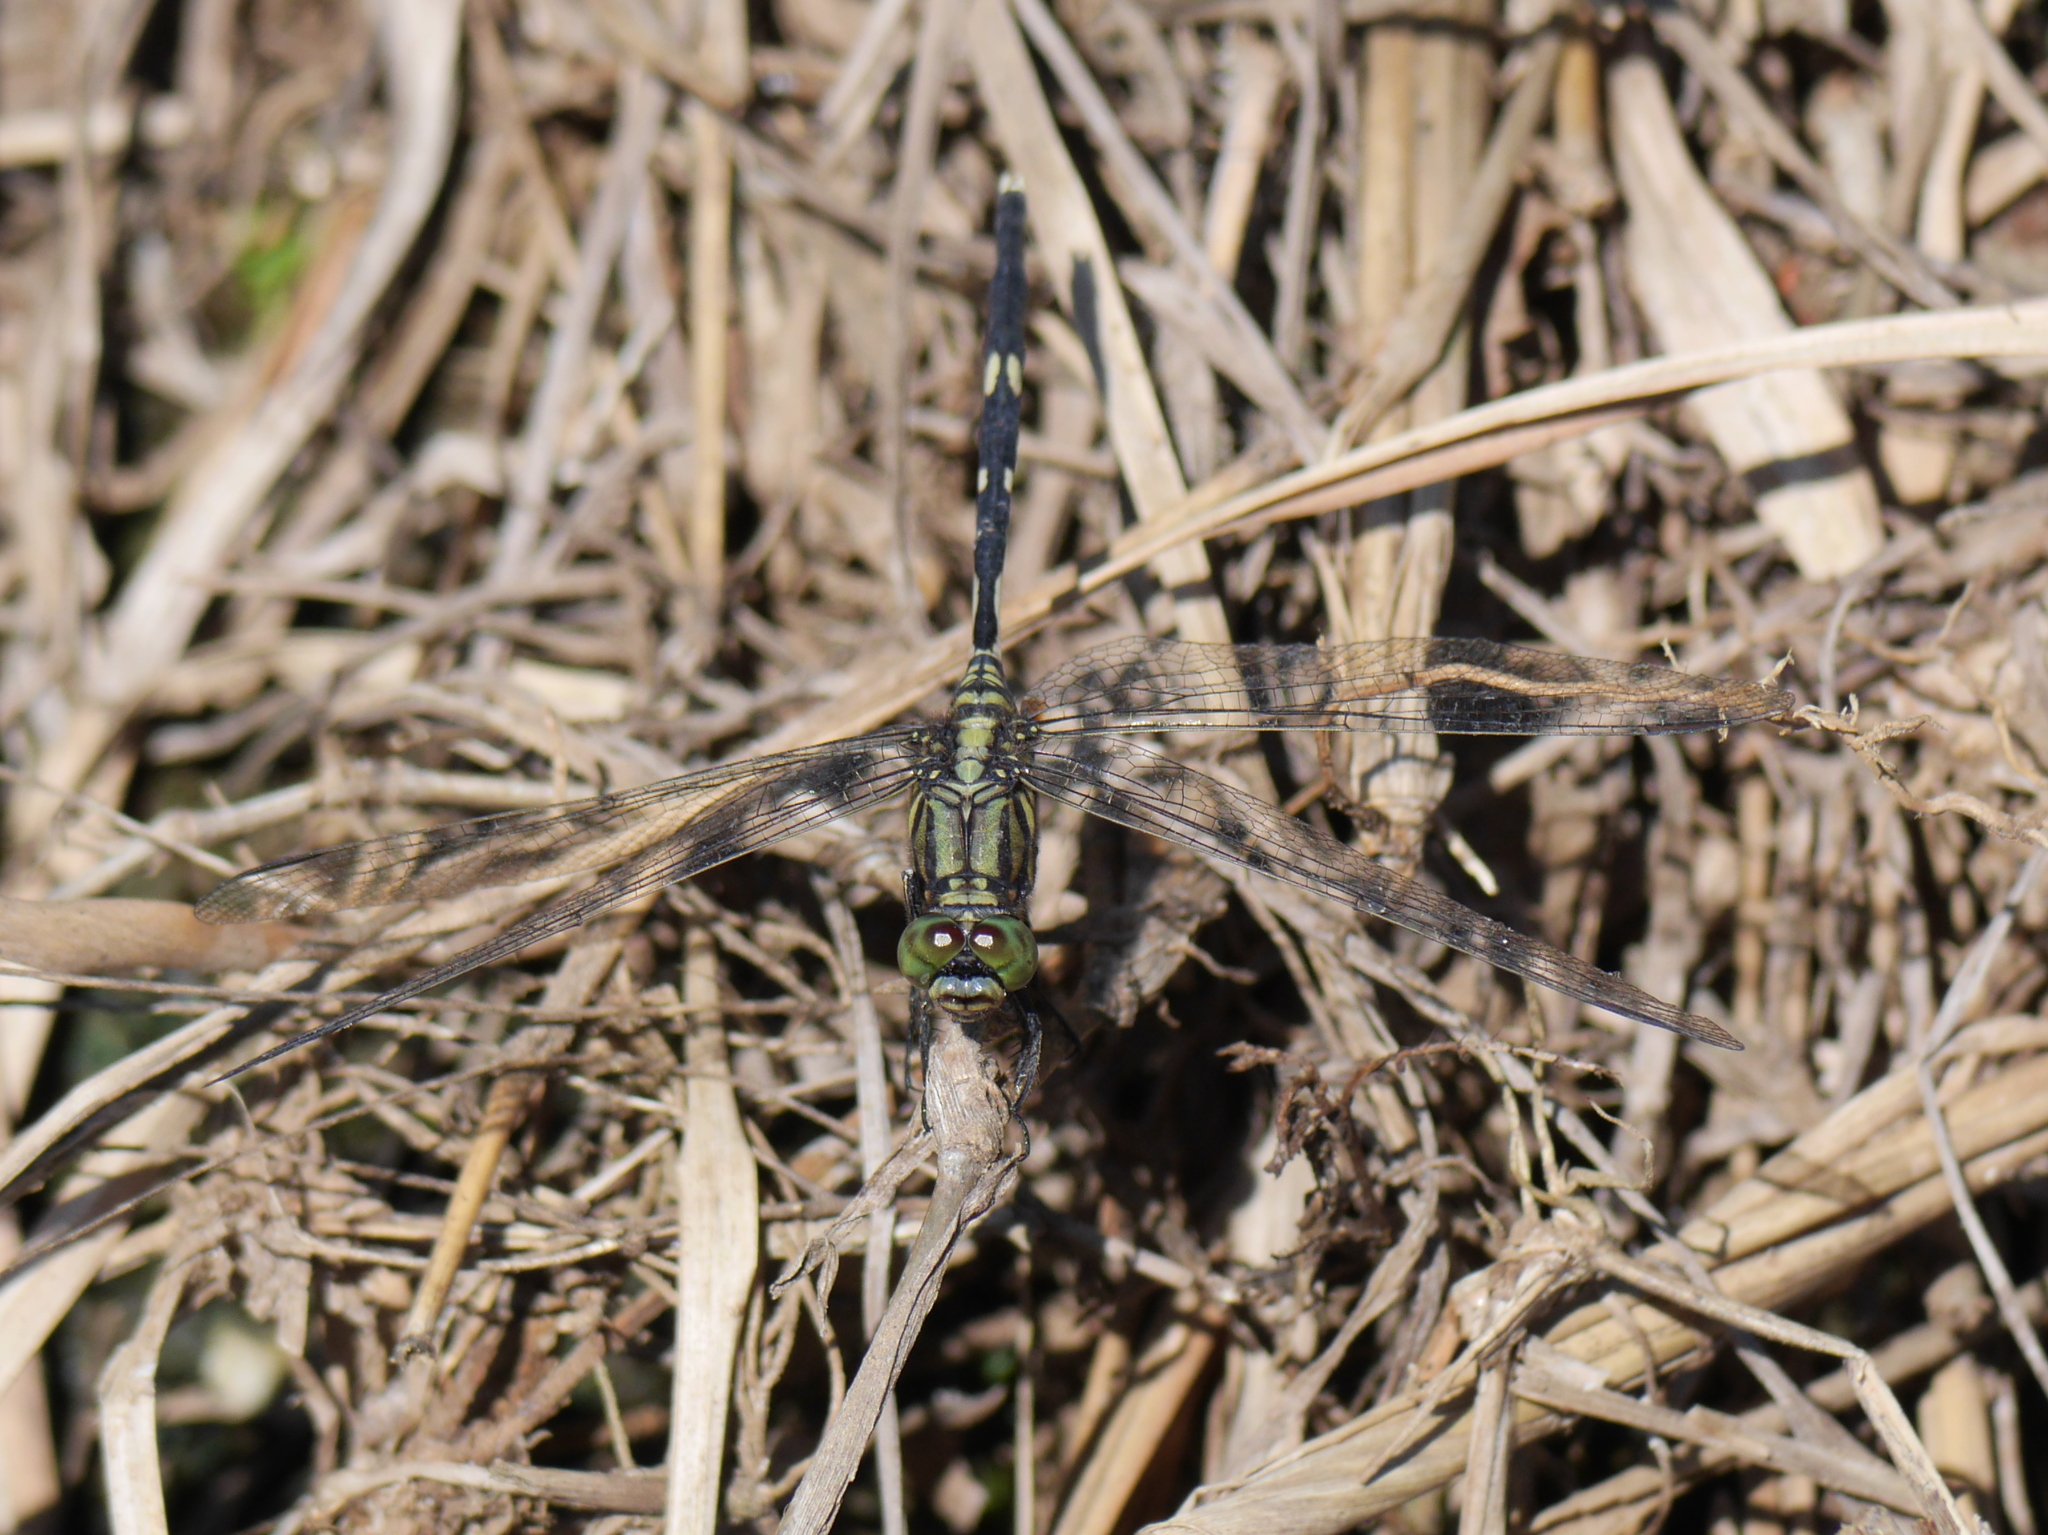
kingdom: Animalia
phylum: Arthropoda
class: Insecta
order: Odonata
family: Libellulidae
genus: Orthetrum
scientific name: Orthetrum sabina
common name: Slender skimmer
